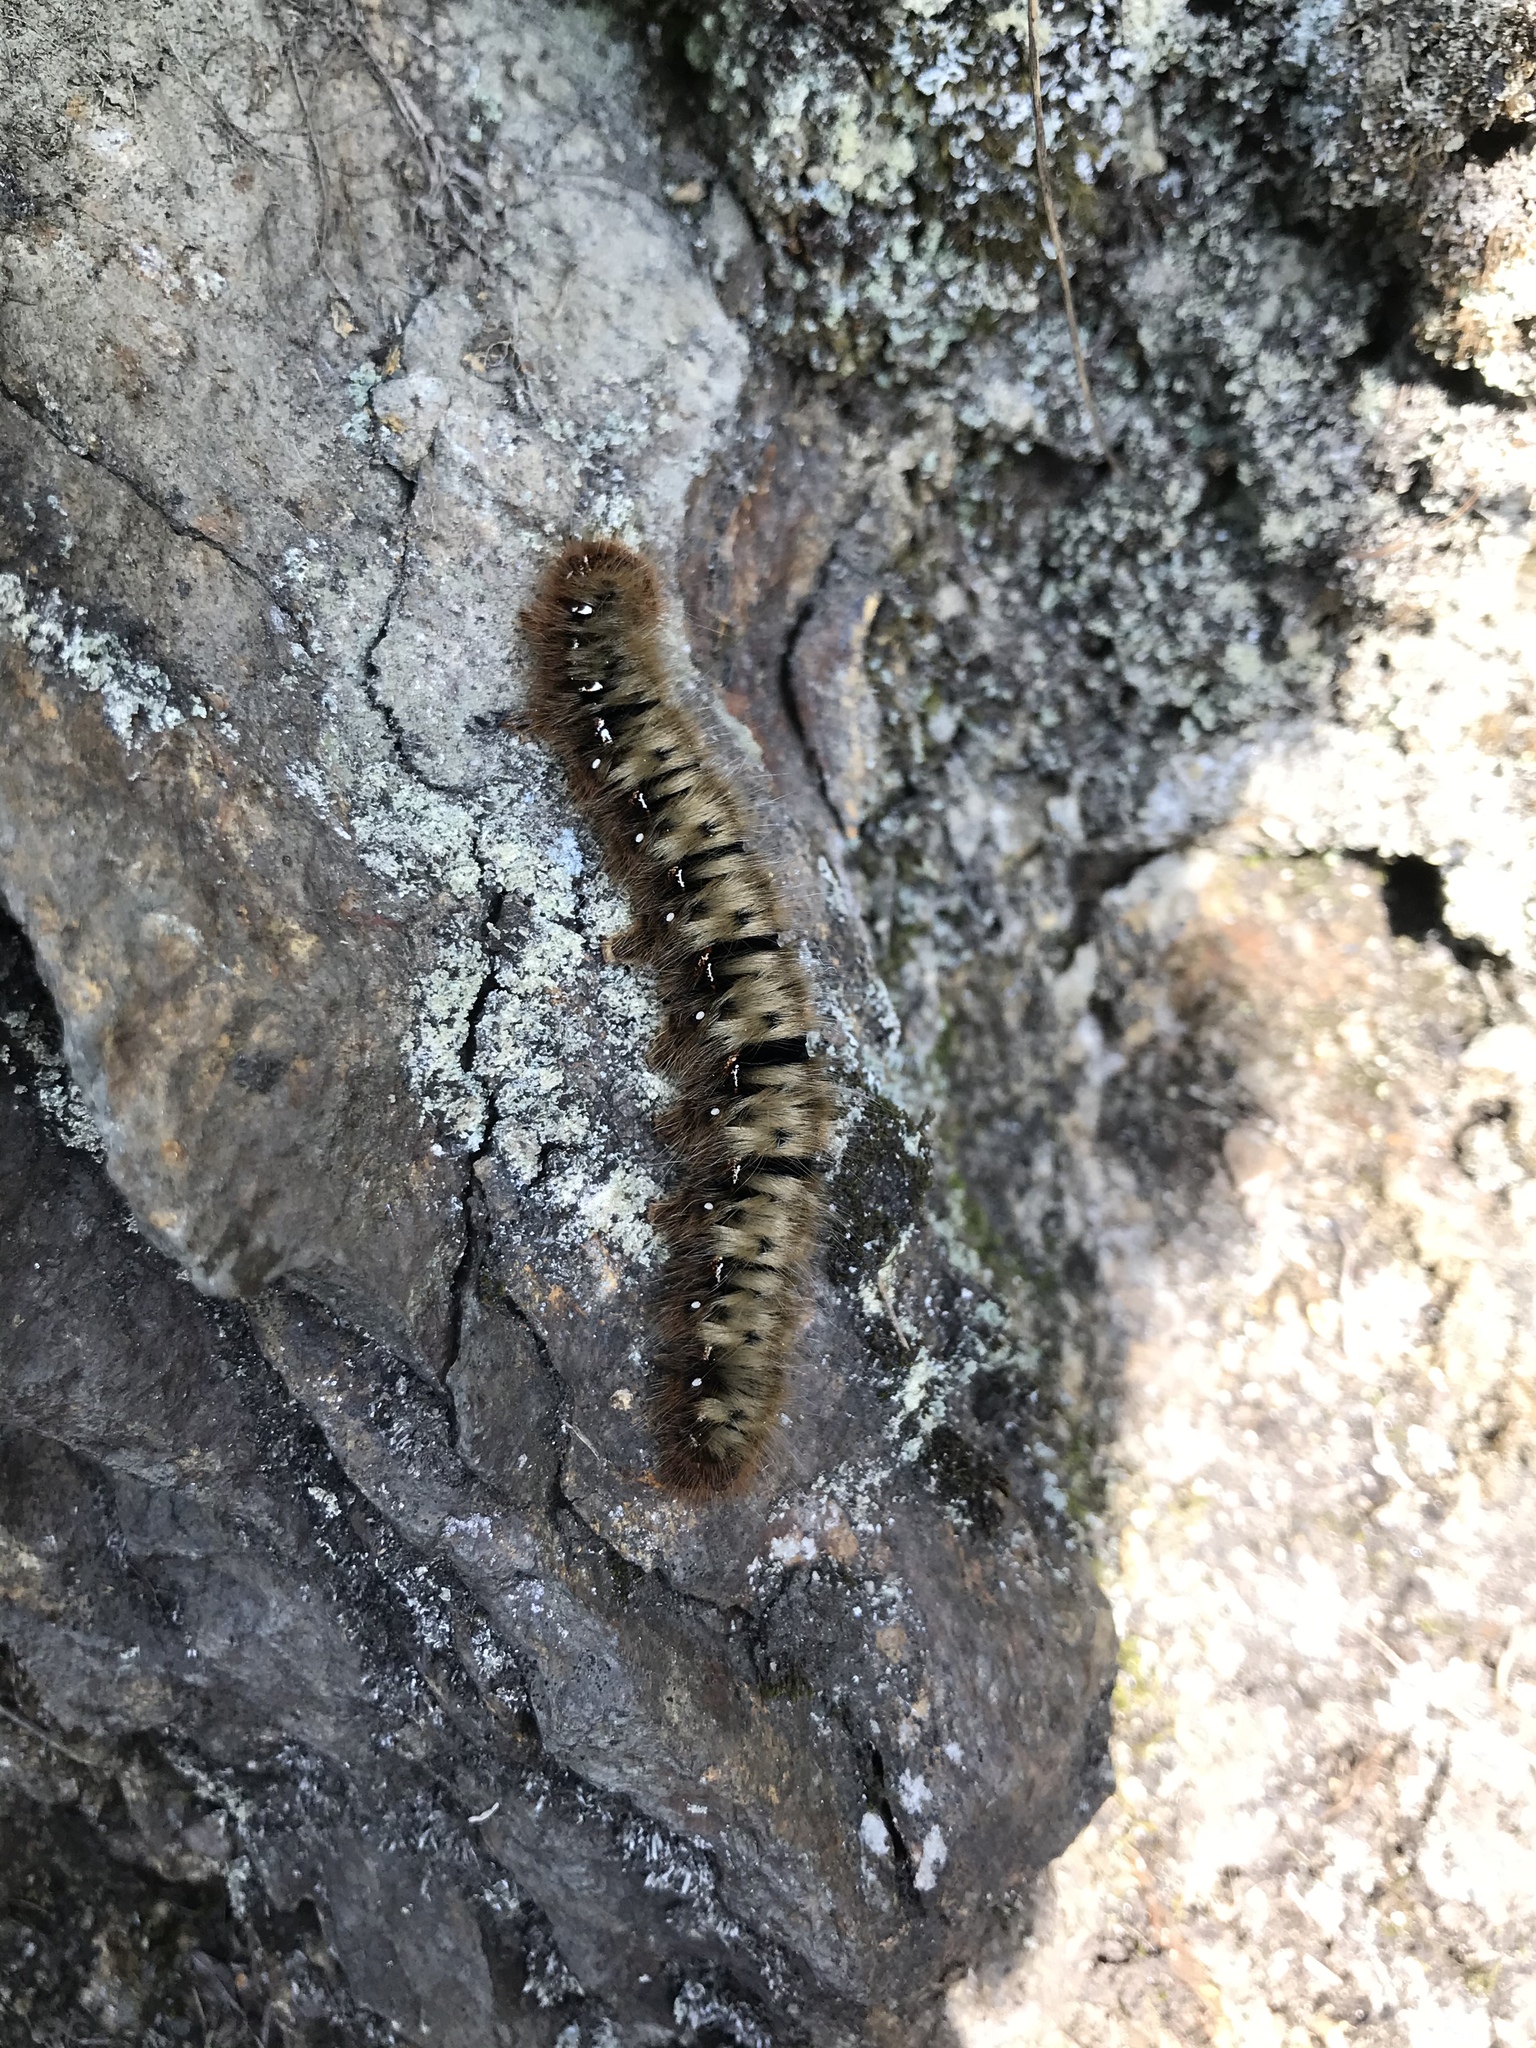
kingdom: Animalia
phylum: Arthropoda
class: Insecta
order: Lepidoptera
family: Lasiocampidae
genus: Lasiocampa
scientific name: Lasiocampa quercus
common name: Oak eggar
